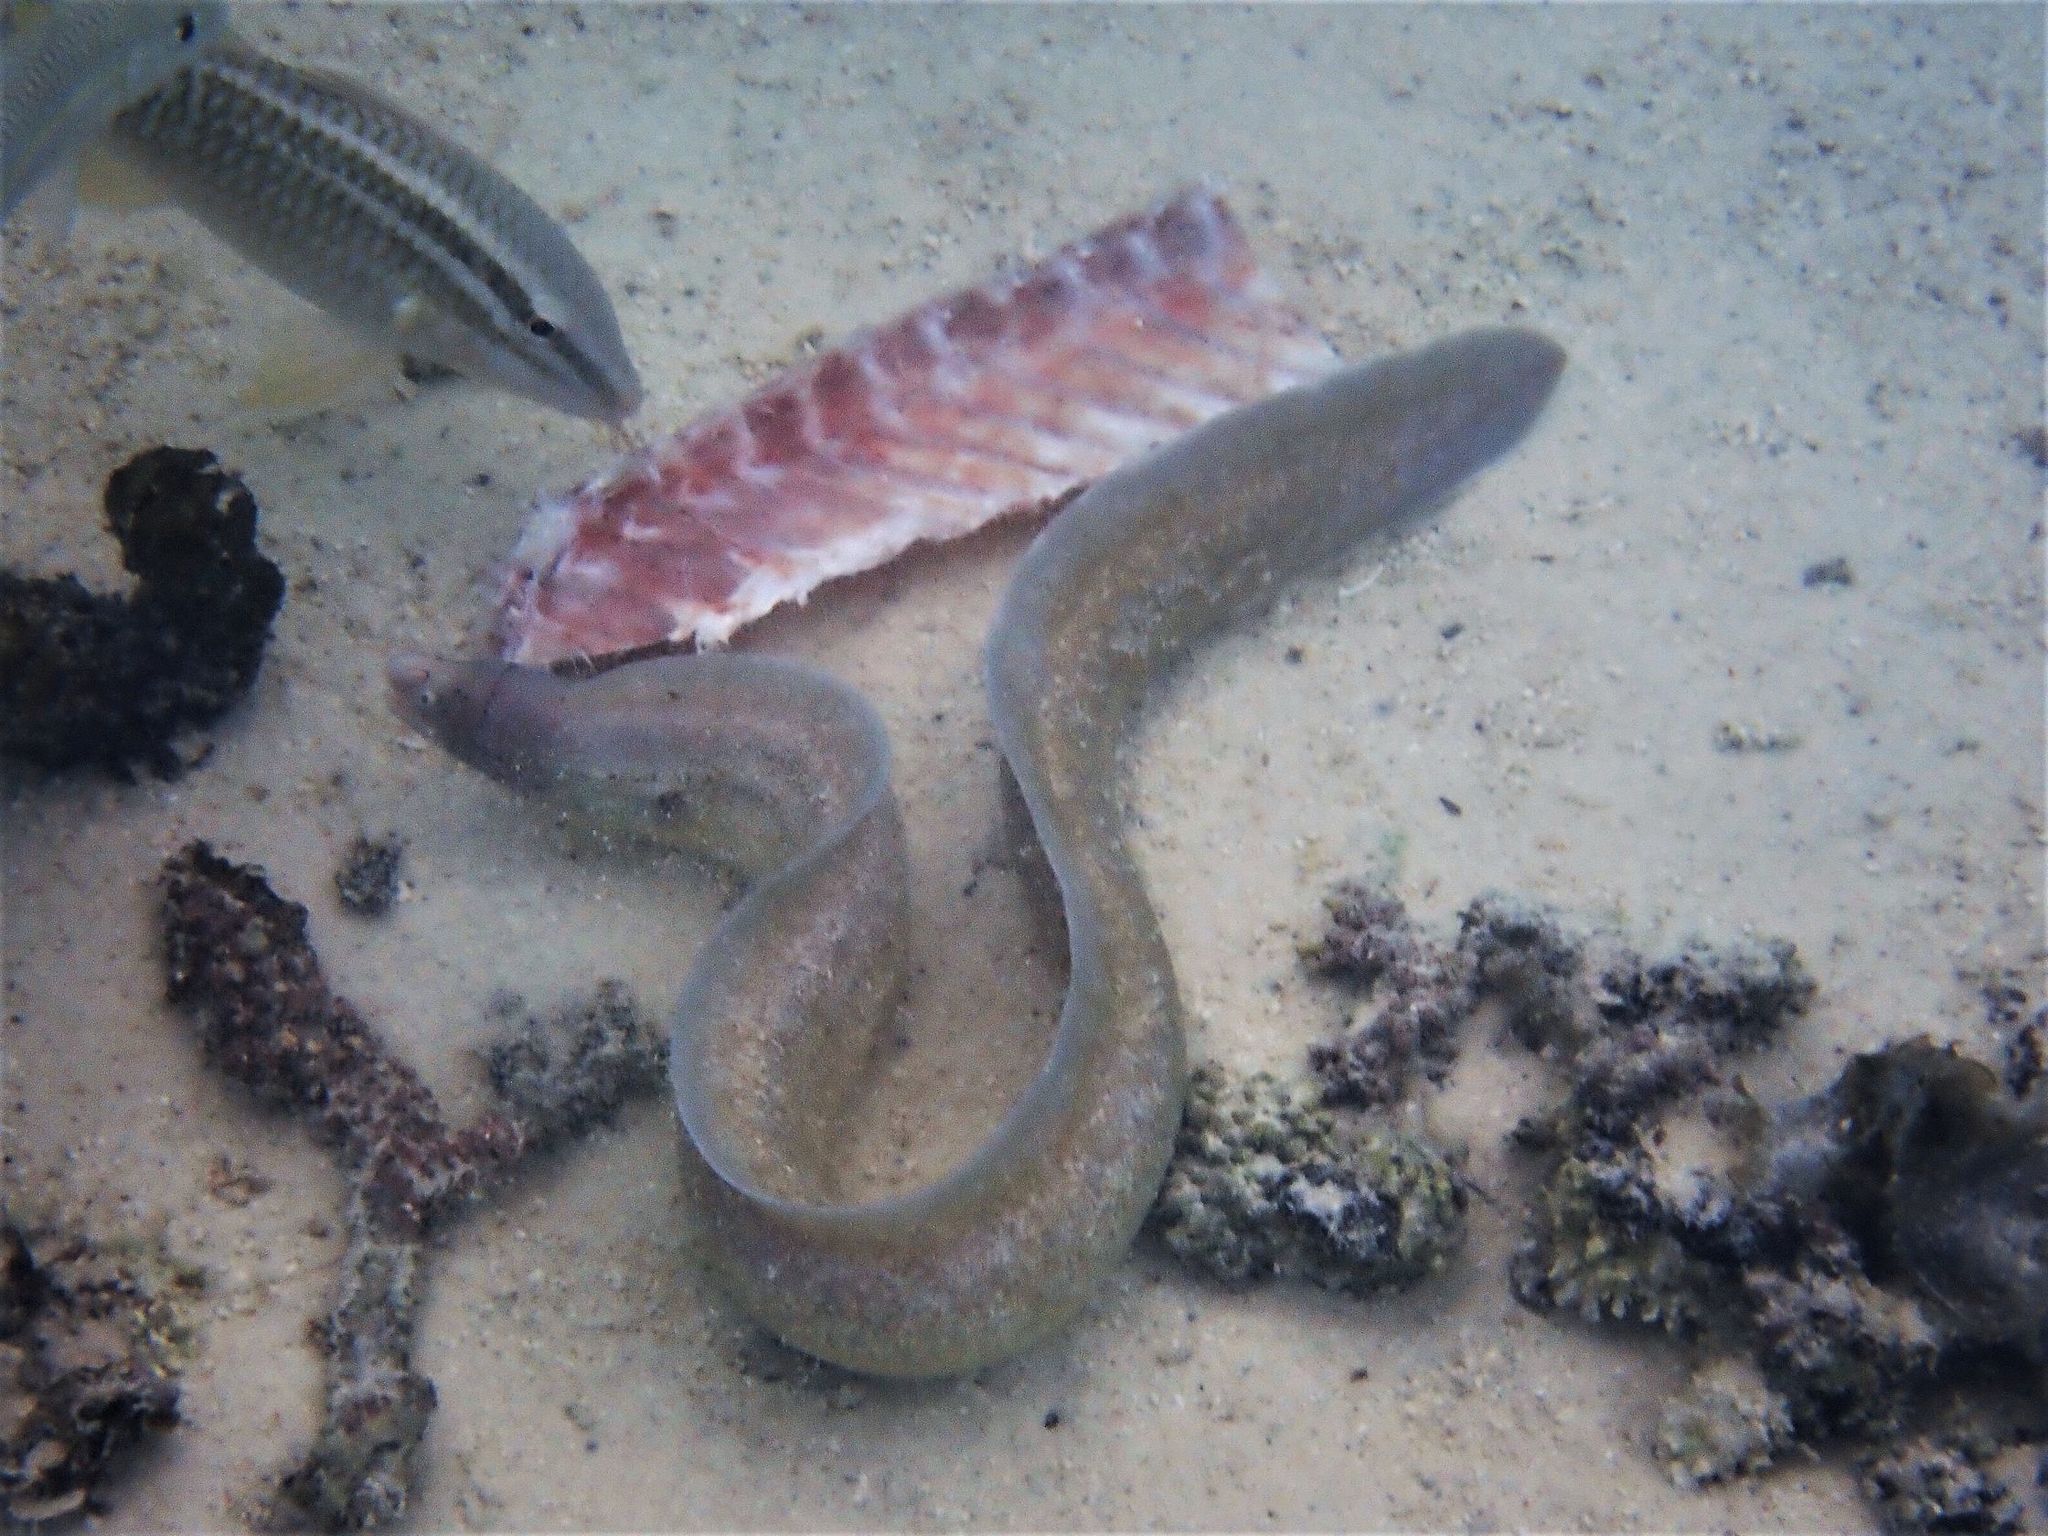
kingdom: Animalia
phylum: Chordata
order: Anguilliformes
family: Muraenidae
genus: Gymnothorax
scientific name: Gymnothorax griseus
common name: Geometric moray
